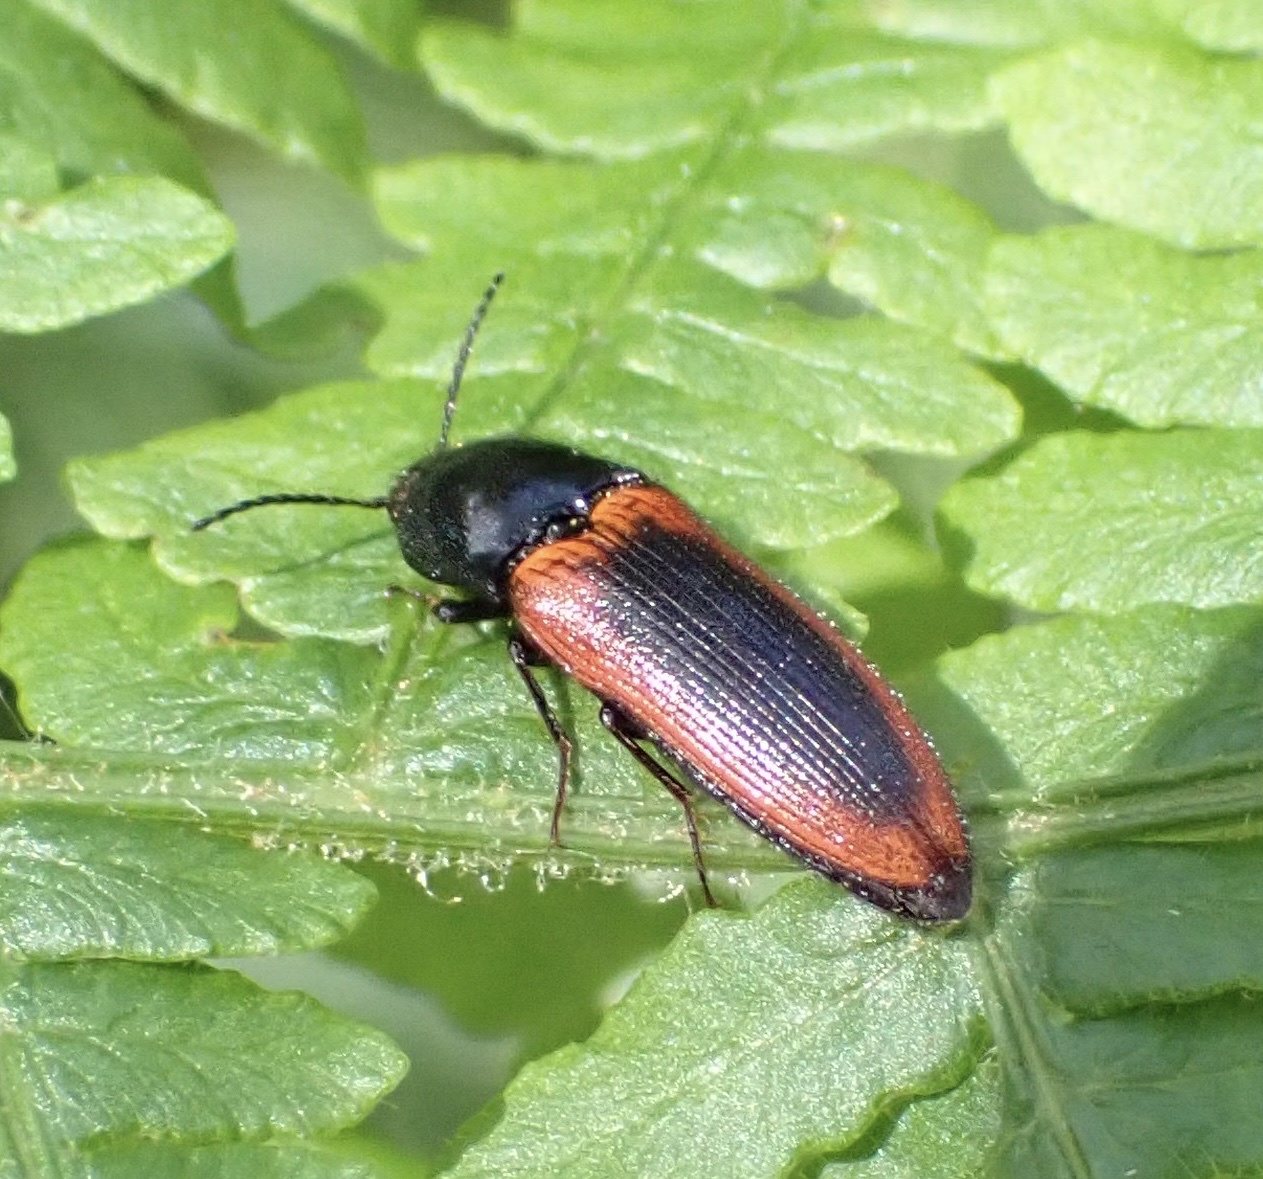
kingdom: Animalia
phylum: Arthropoda
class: Insecta
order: Coleoptera
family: Elateridae
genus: Ampedus
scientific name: Ampedus sanguinolentus
